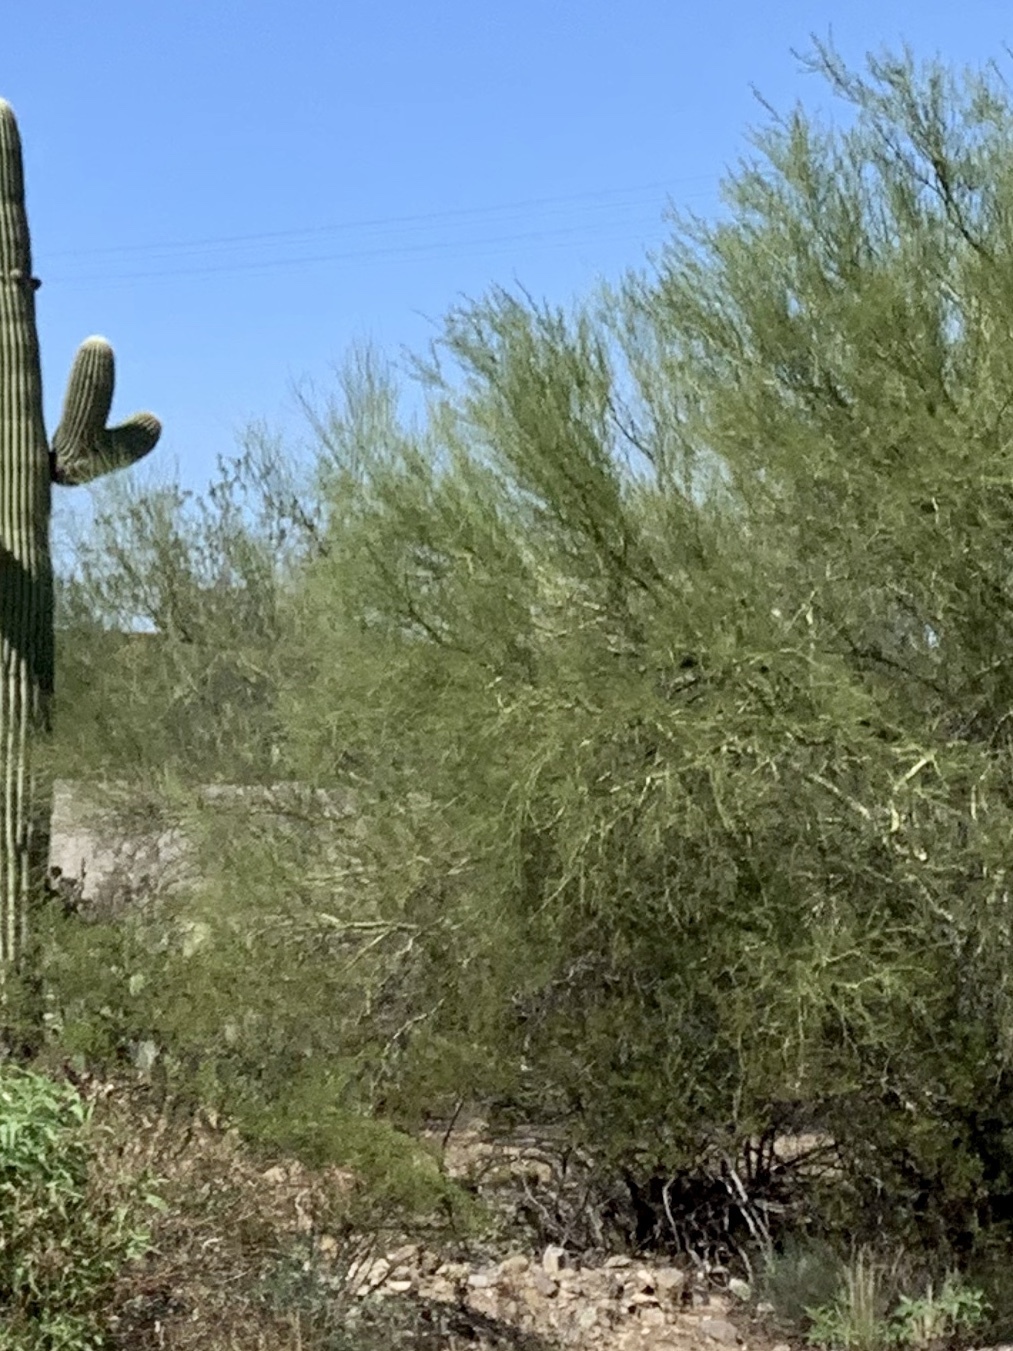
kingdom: Plantae
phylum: Tracheophyta
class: Magnoliopsida
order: Fabales
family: Fabaceae
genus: Parkinsonia
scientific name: Parkinsonia microphylla
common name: Yellow paloverde
